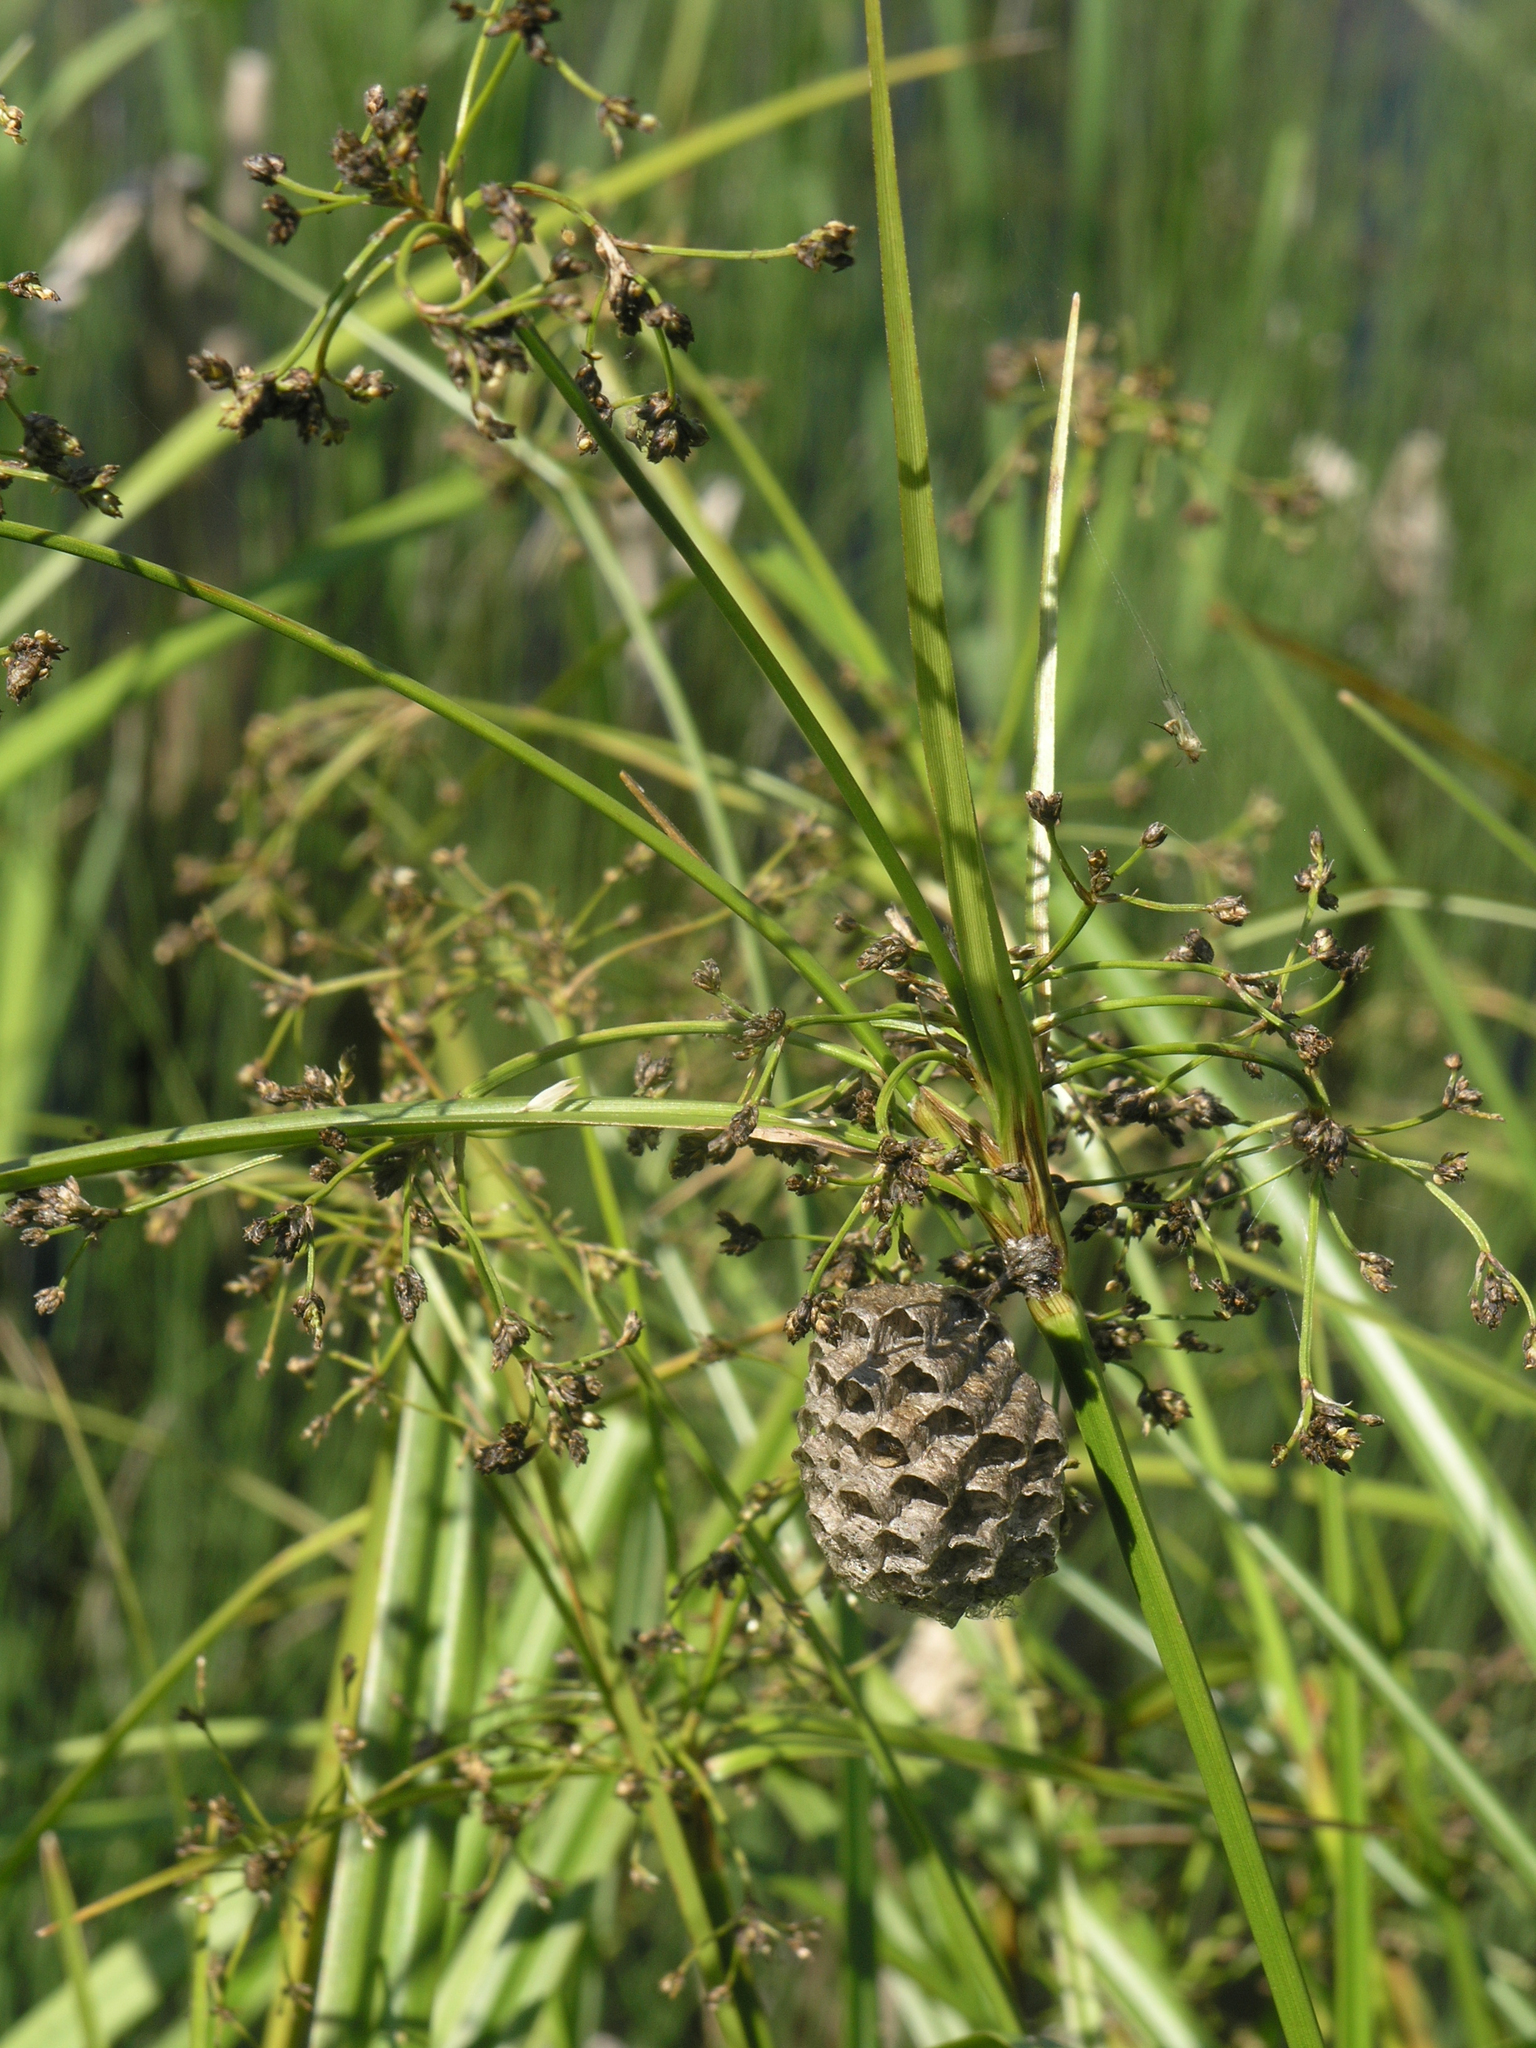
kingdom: Plantae
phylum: Tracheophyta
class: Liliopsida
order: Poales
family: Cyperaceae
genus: Scirpus
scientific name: Scirpus sylvaticus
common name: Wood club-rush
